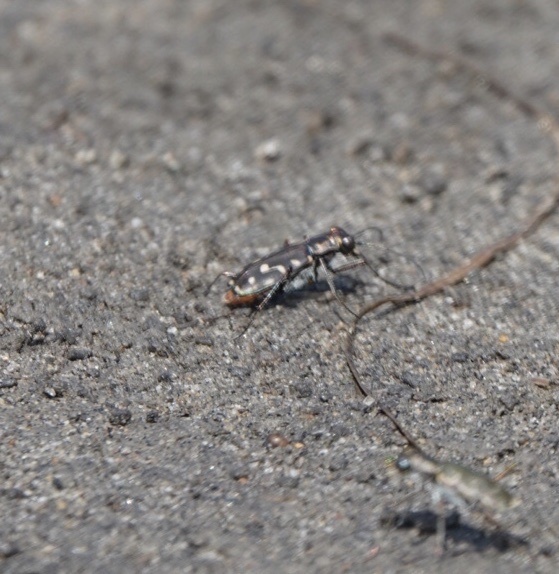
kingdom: Animalia
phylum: Arthropoda
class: Insecta
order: Coleoptera
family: Carabidae
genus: Cicindela
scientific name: Cicindela hemorrhagica
